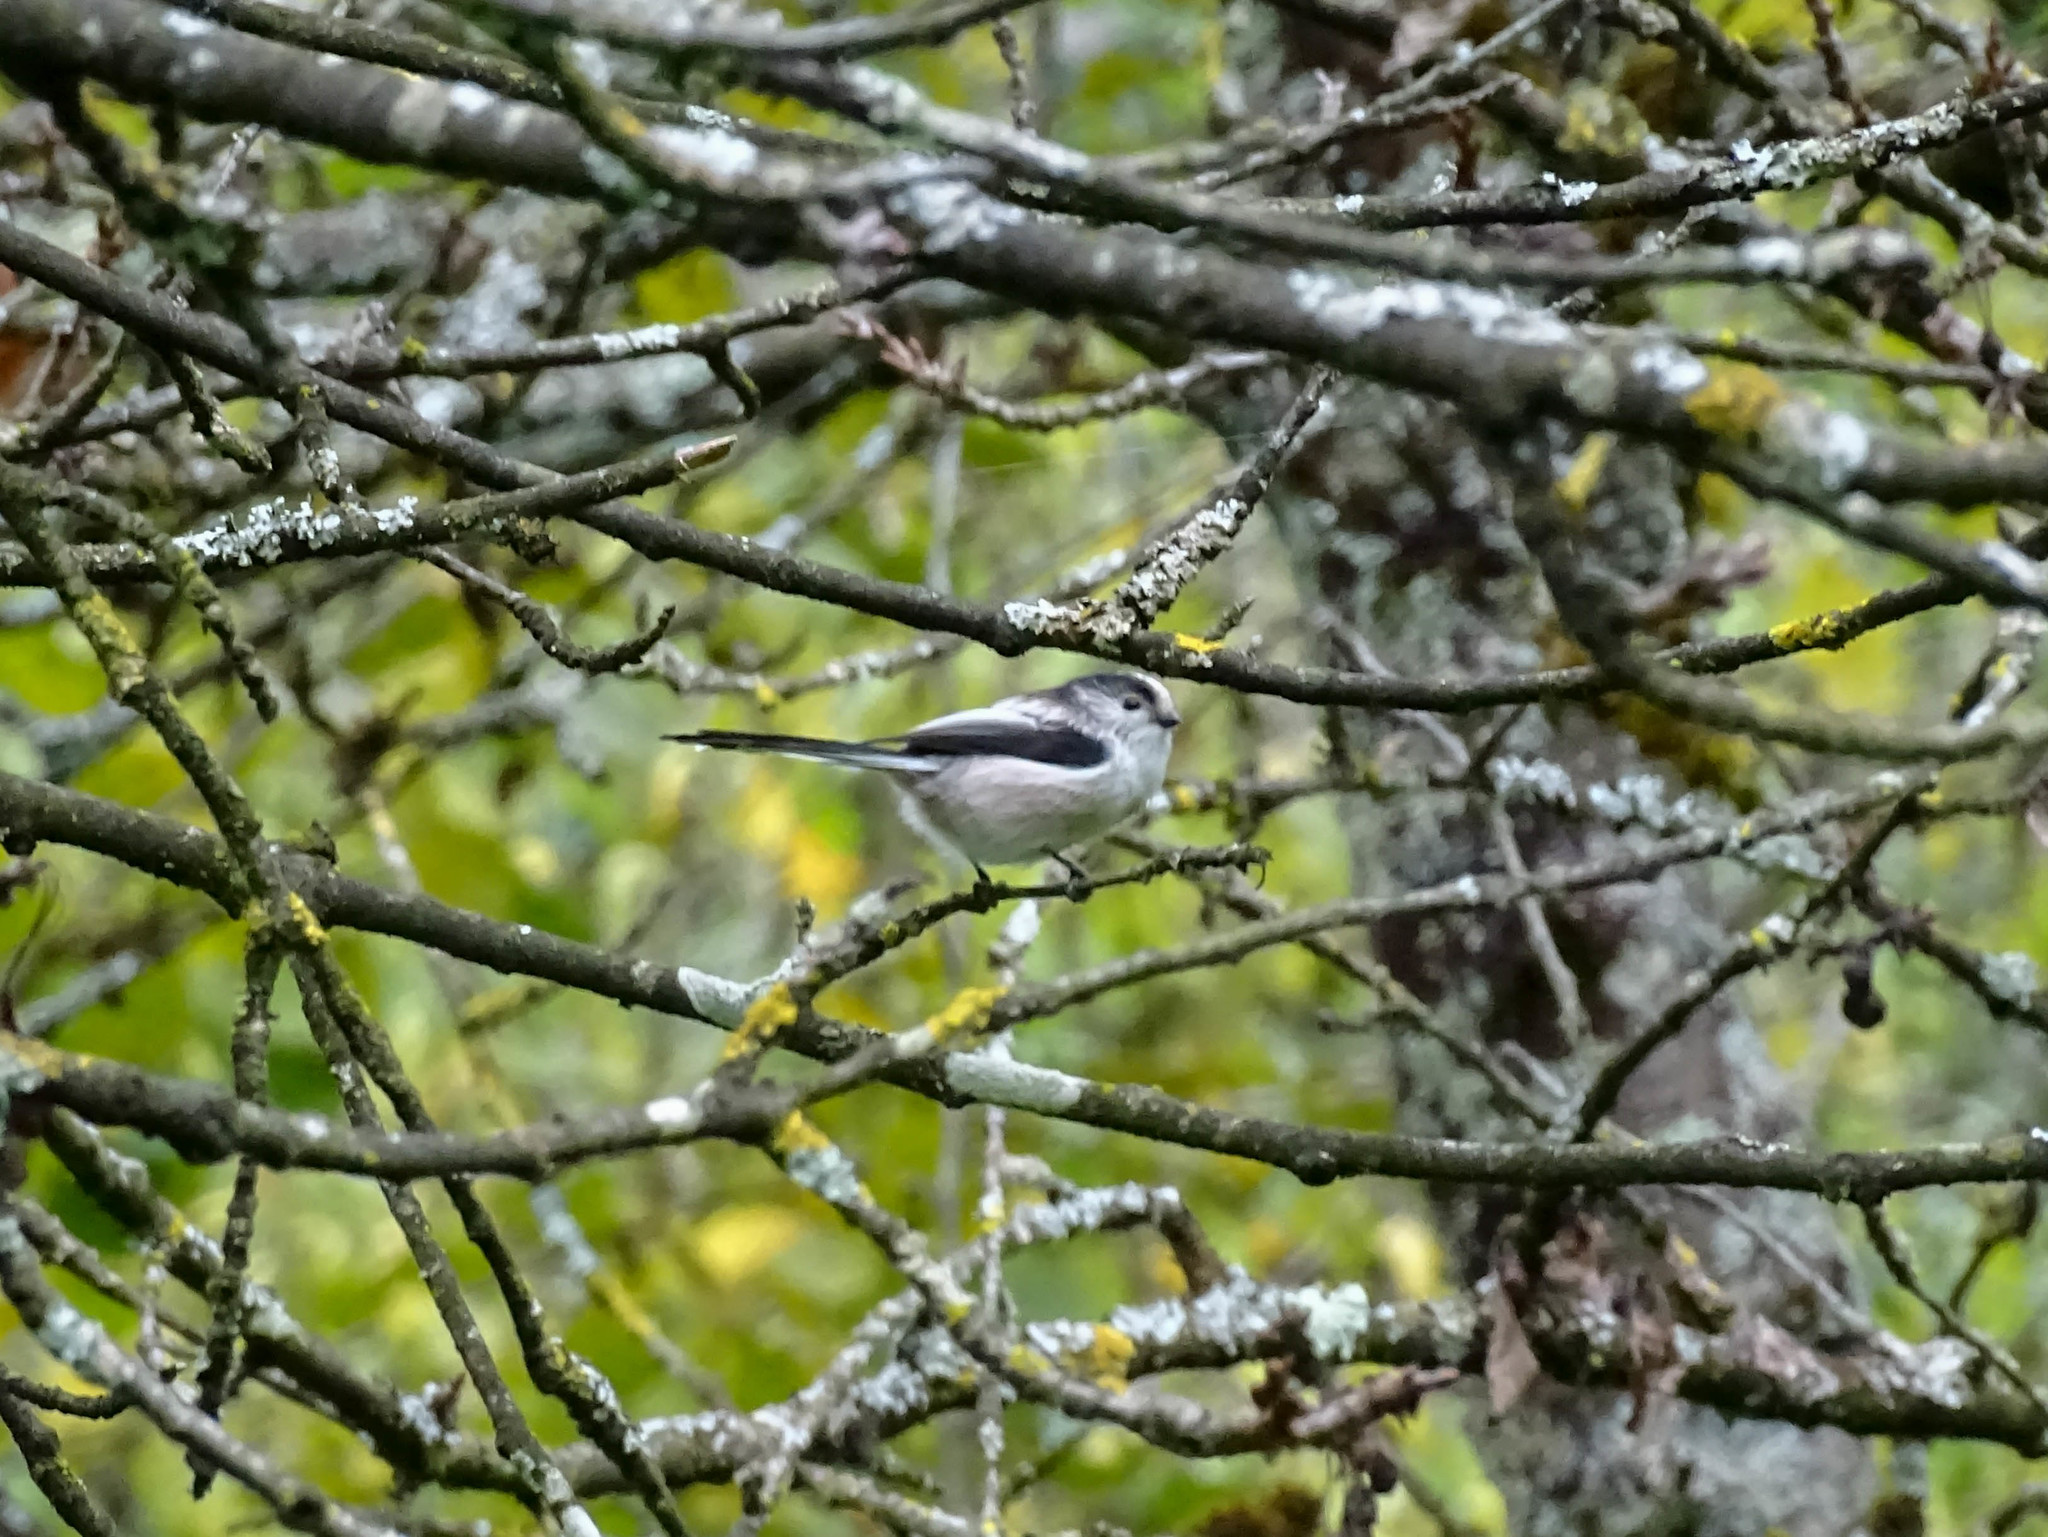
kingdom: Animalia
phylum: Chordata
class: Aves
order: Passeriformes
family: Aegithalidae
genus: Aegithalos
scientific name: Aegithalos caudatus
